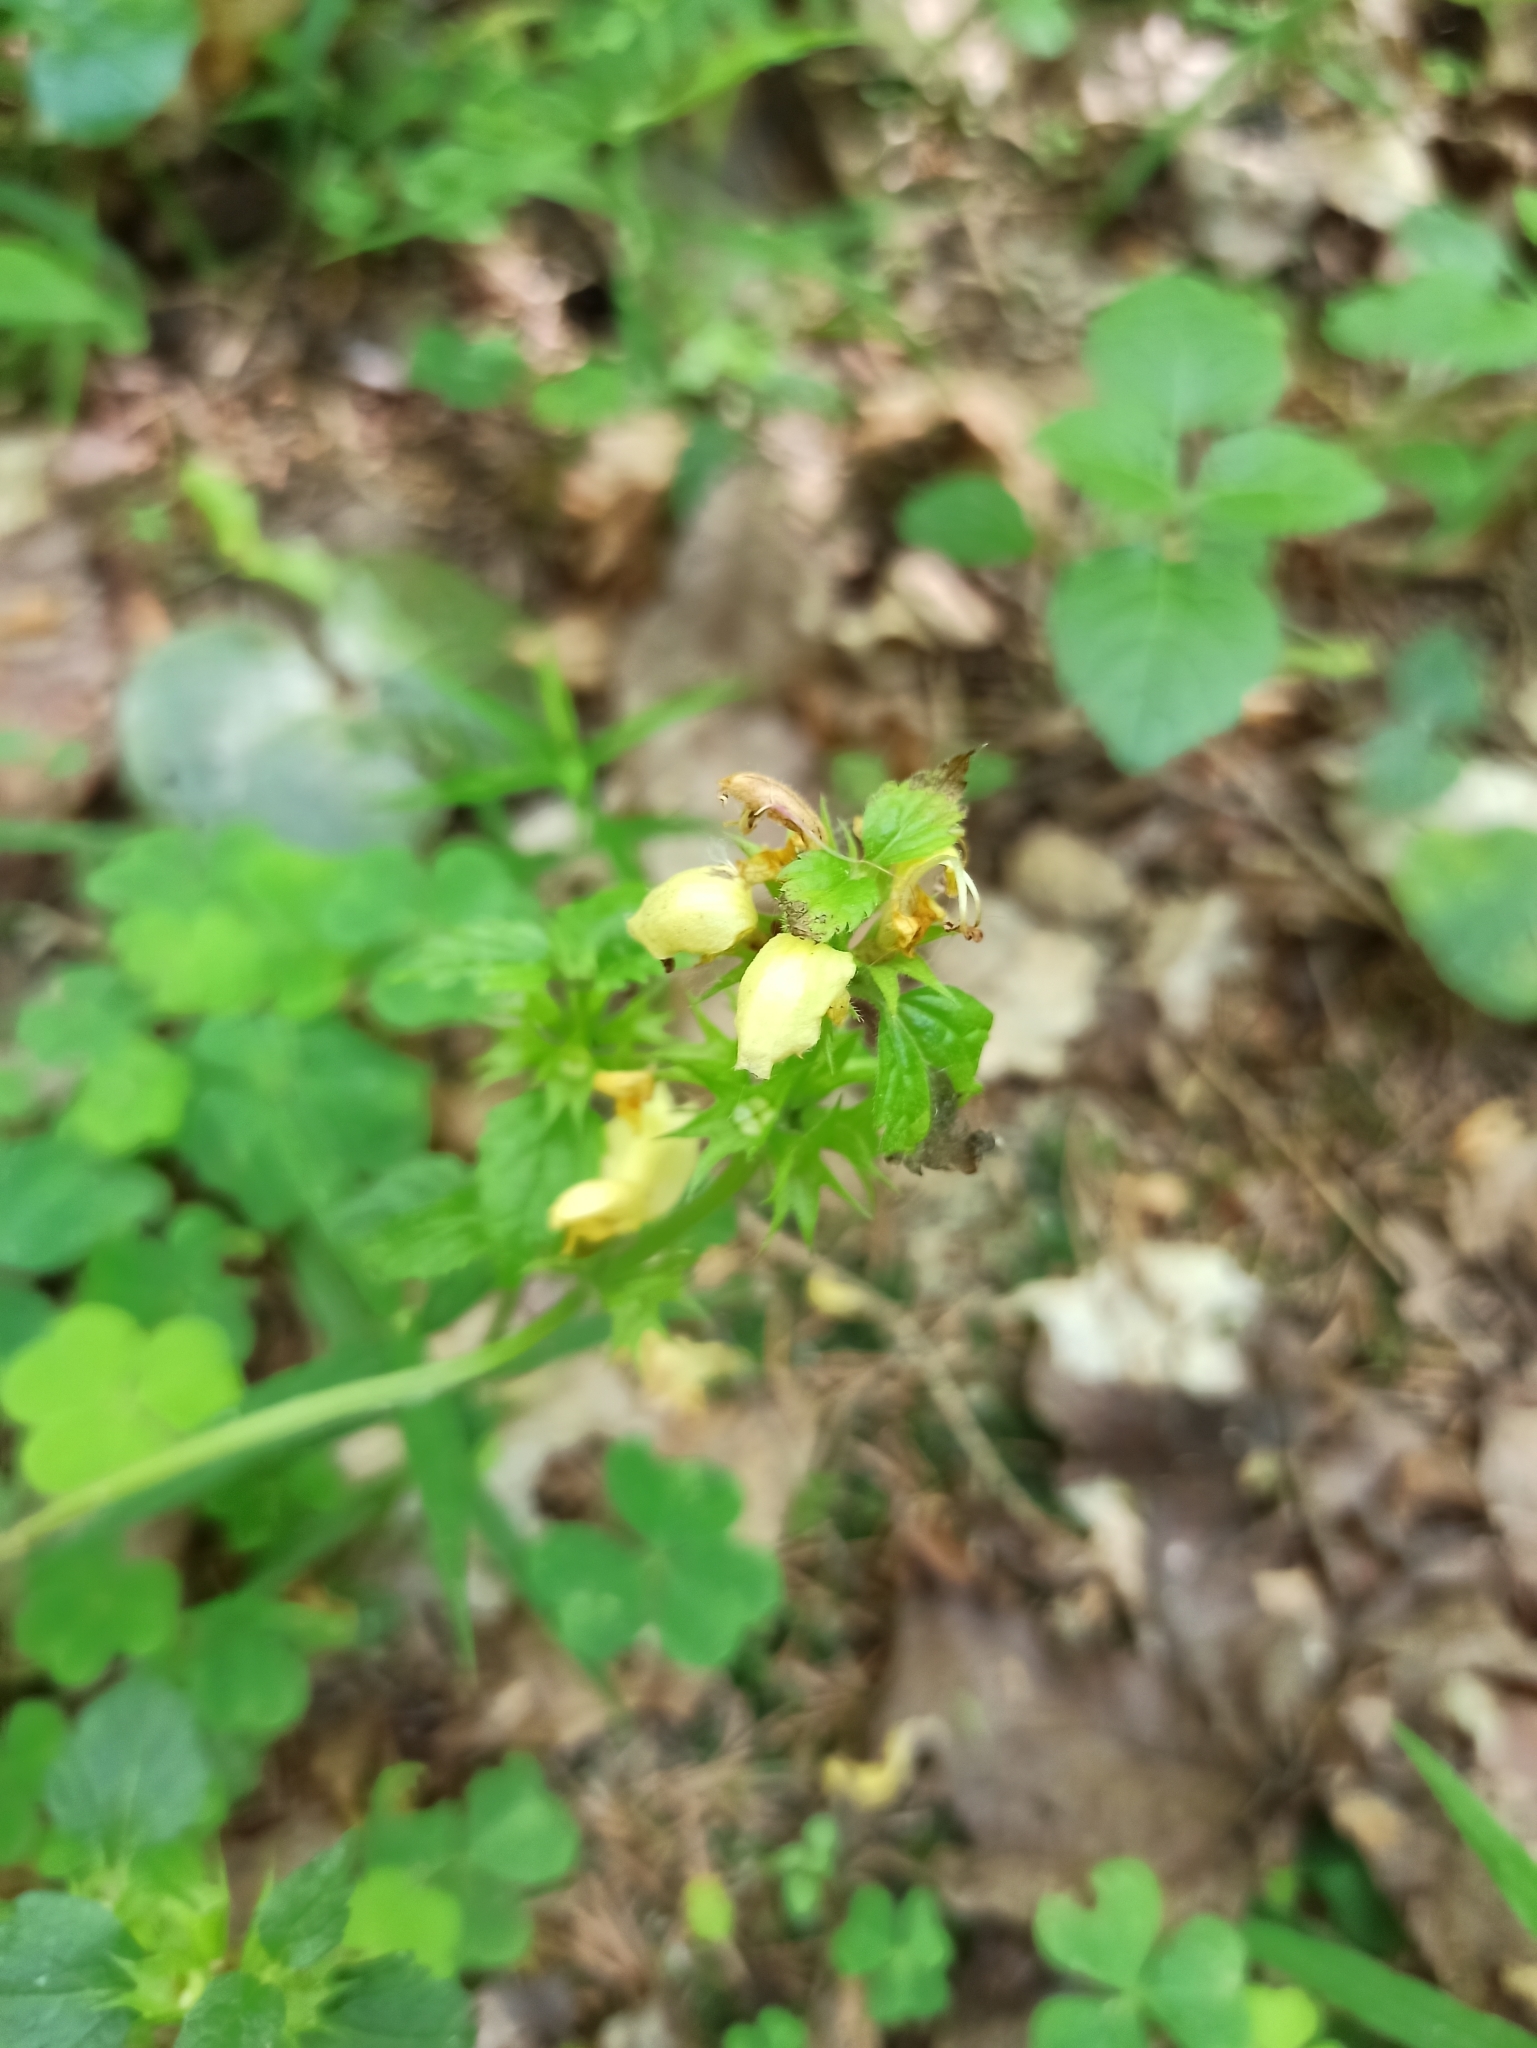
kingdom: Plantae
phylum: Tracheophyta
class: Magnoliopsida
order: Lamiales
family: Lamiaceae
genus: Lamium
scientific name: Lamium galeobdolon
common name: Yellow archangel
